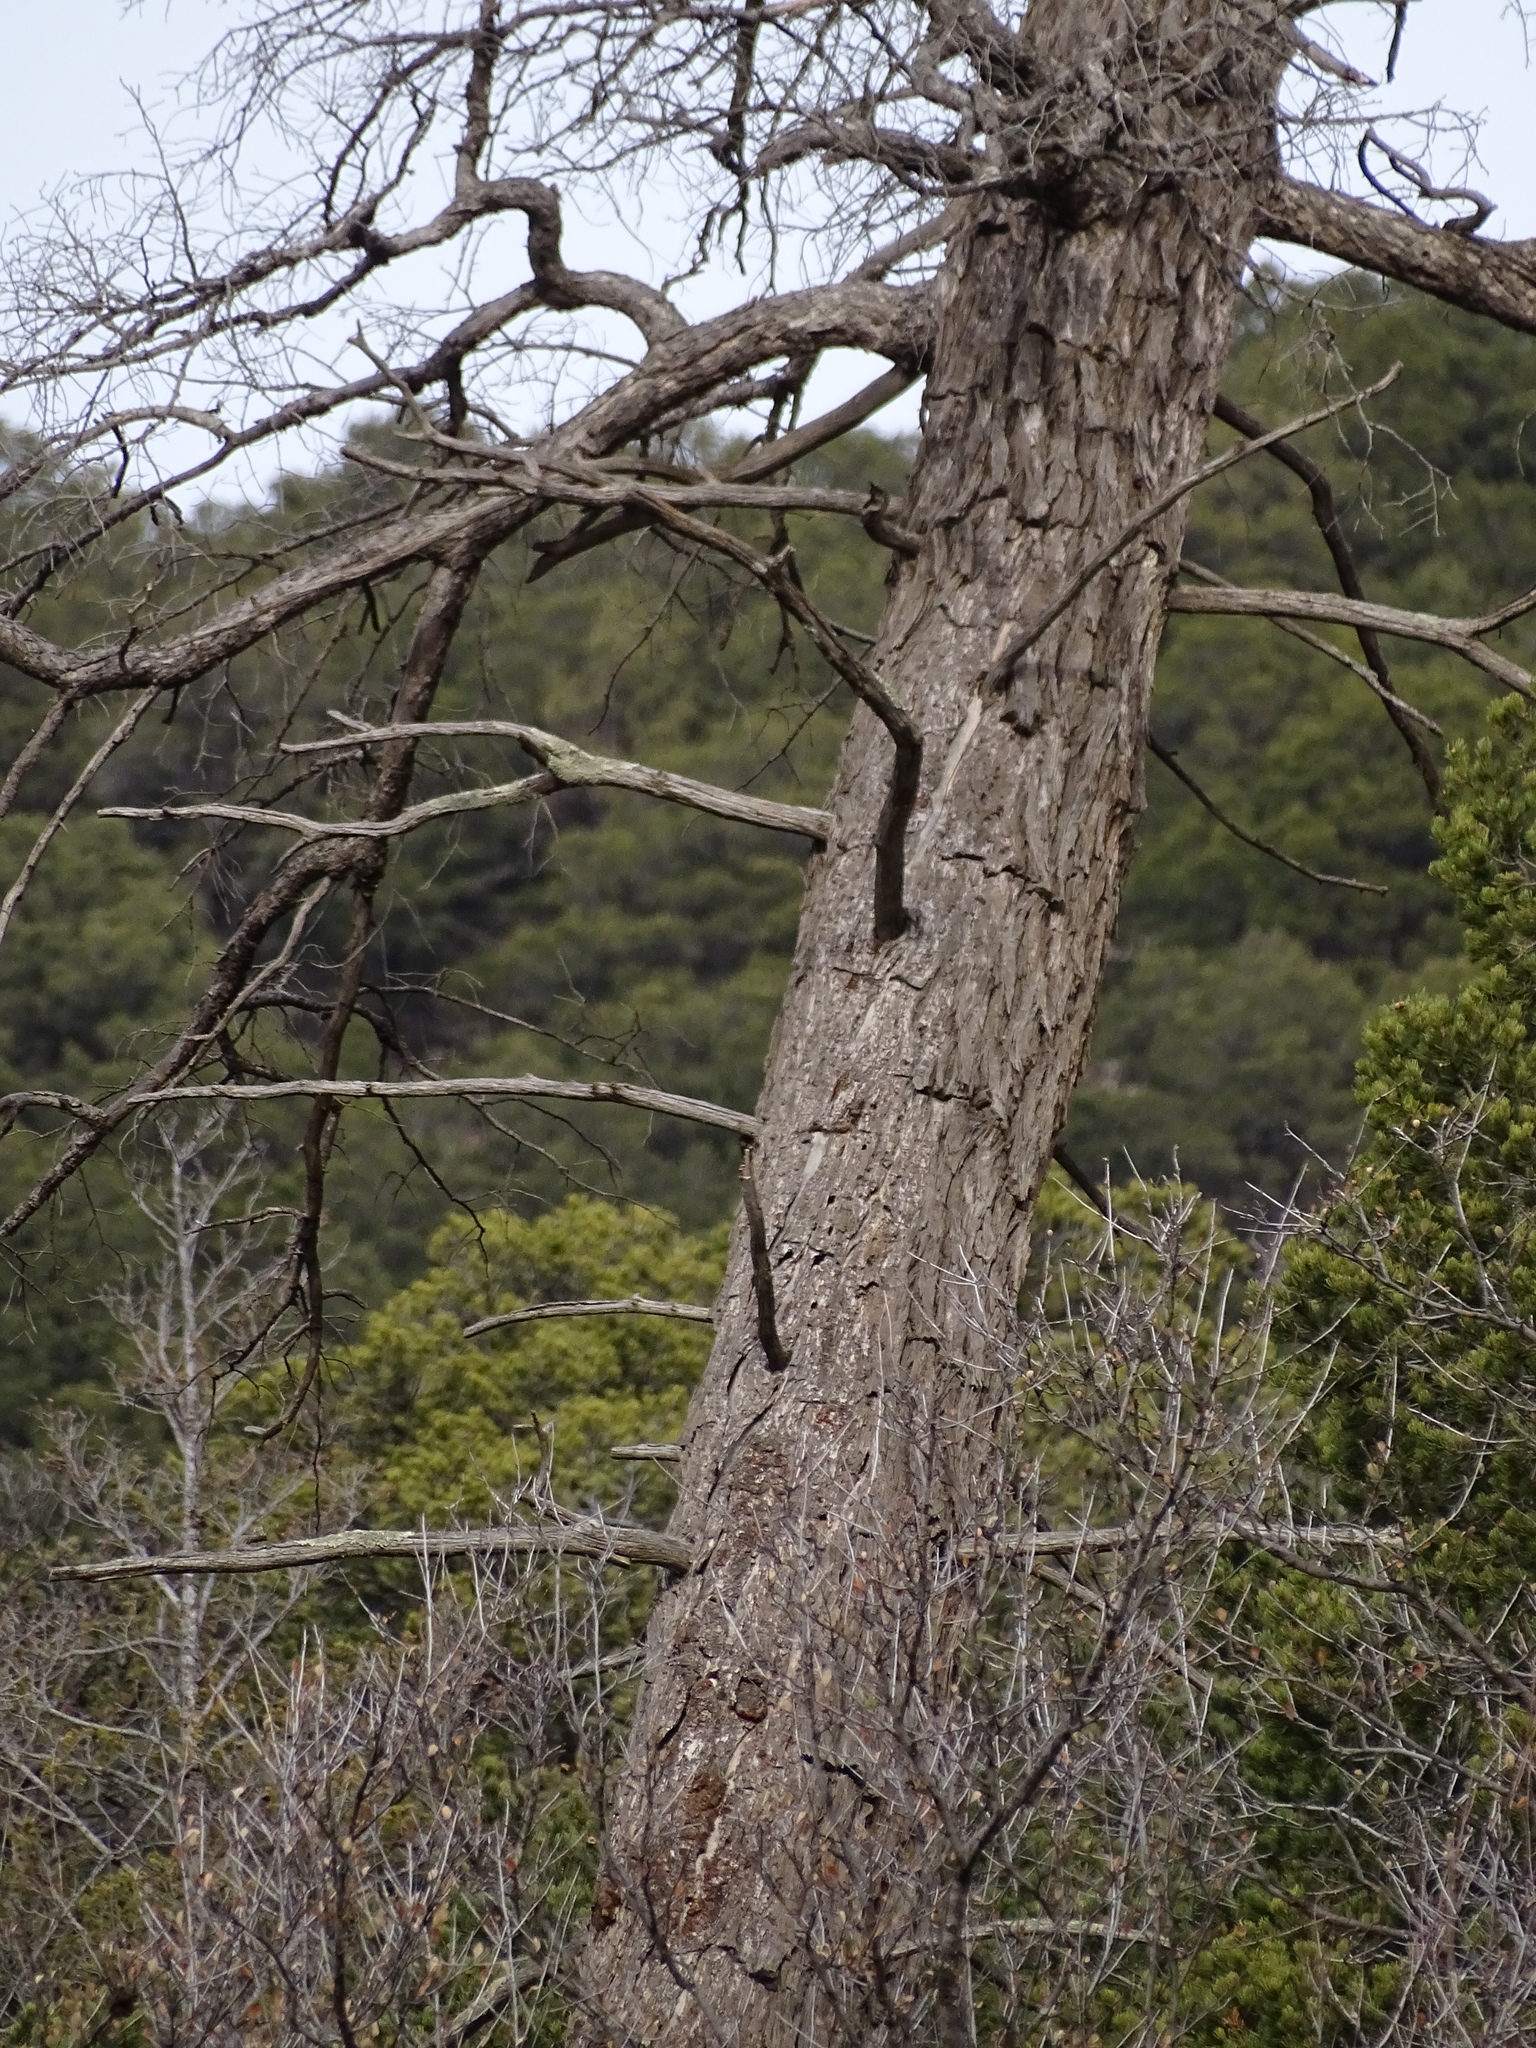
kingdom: Plantae
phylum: Tracheophyta
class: Pinopsida
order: Pinales
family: Pinaceae
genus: Pseudotsuga
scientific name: Pseudotsuga menziesii
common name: Douglas fir
